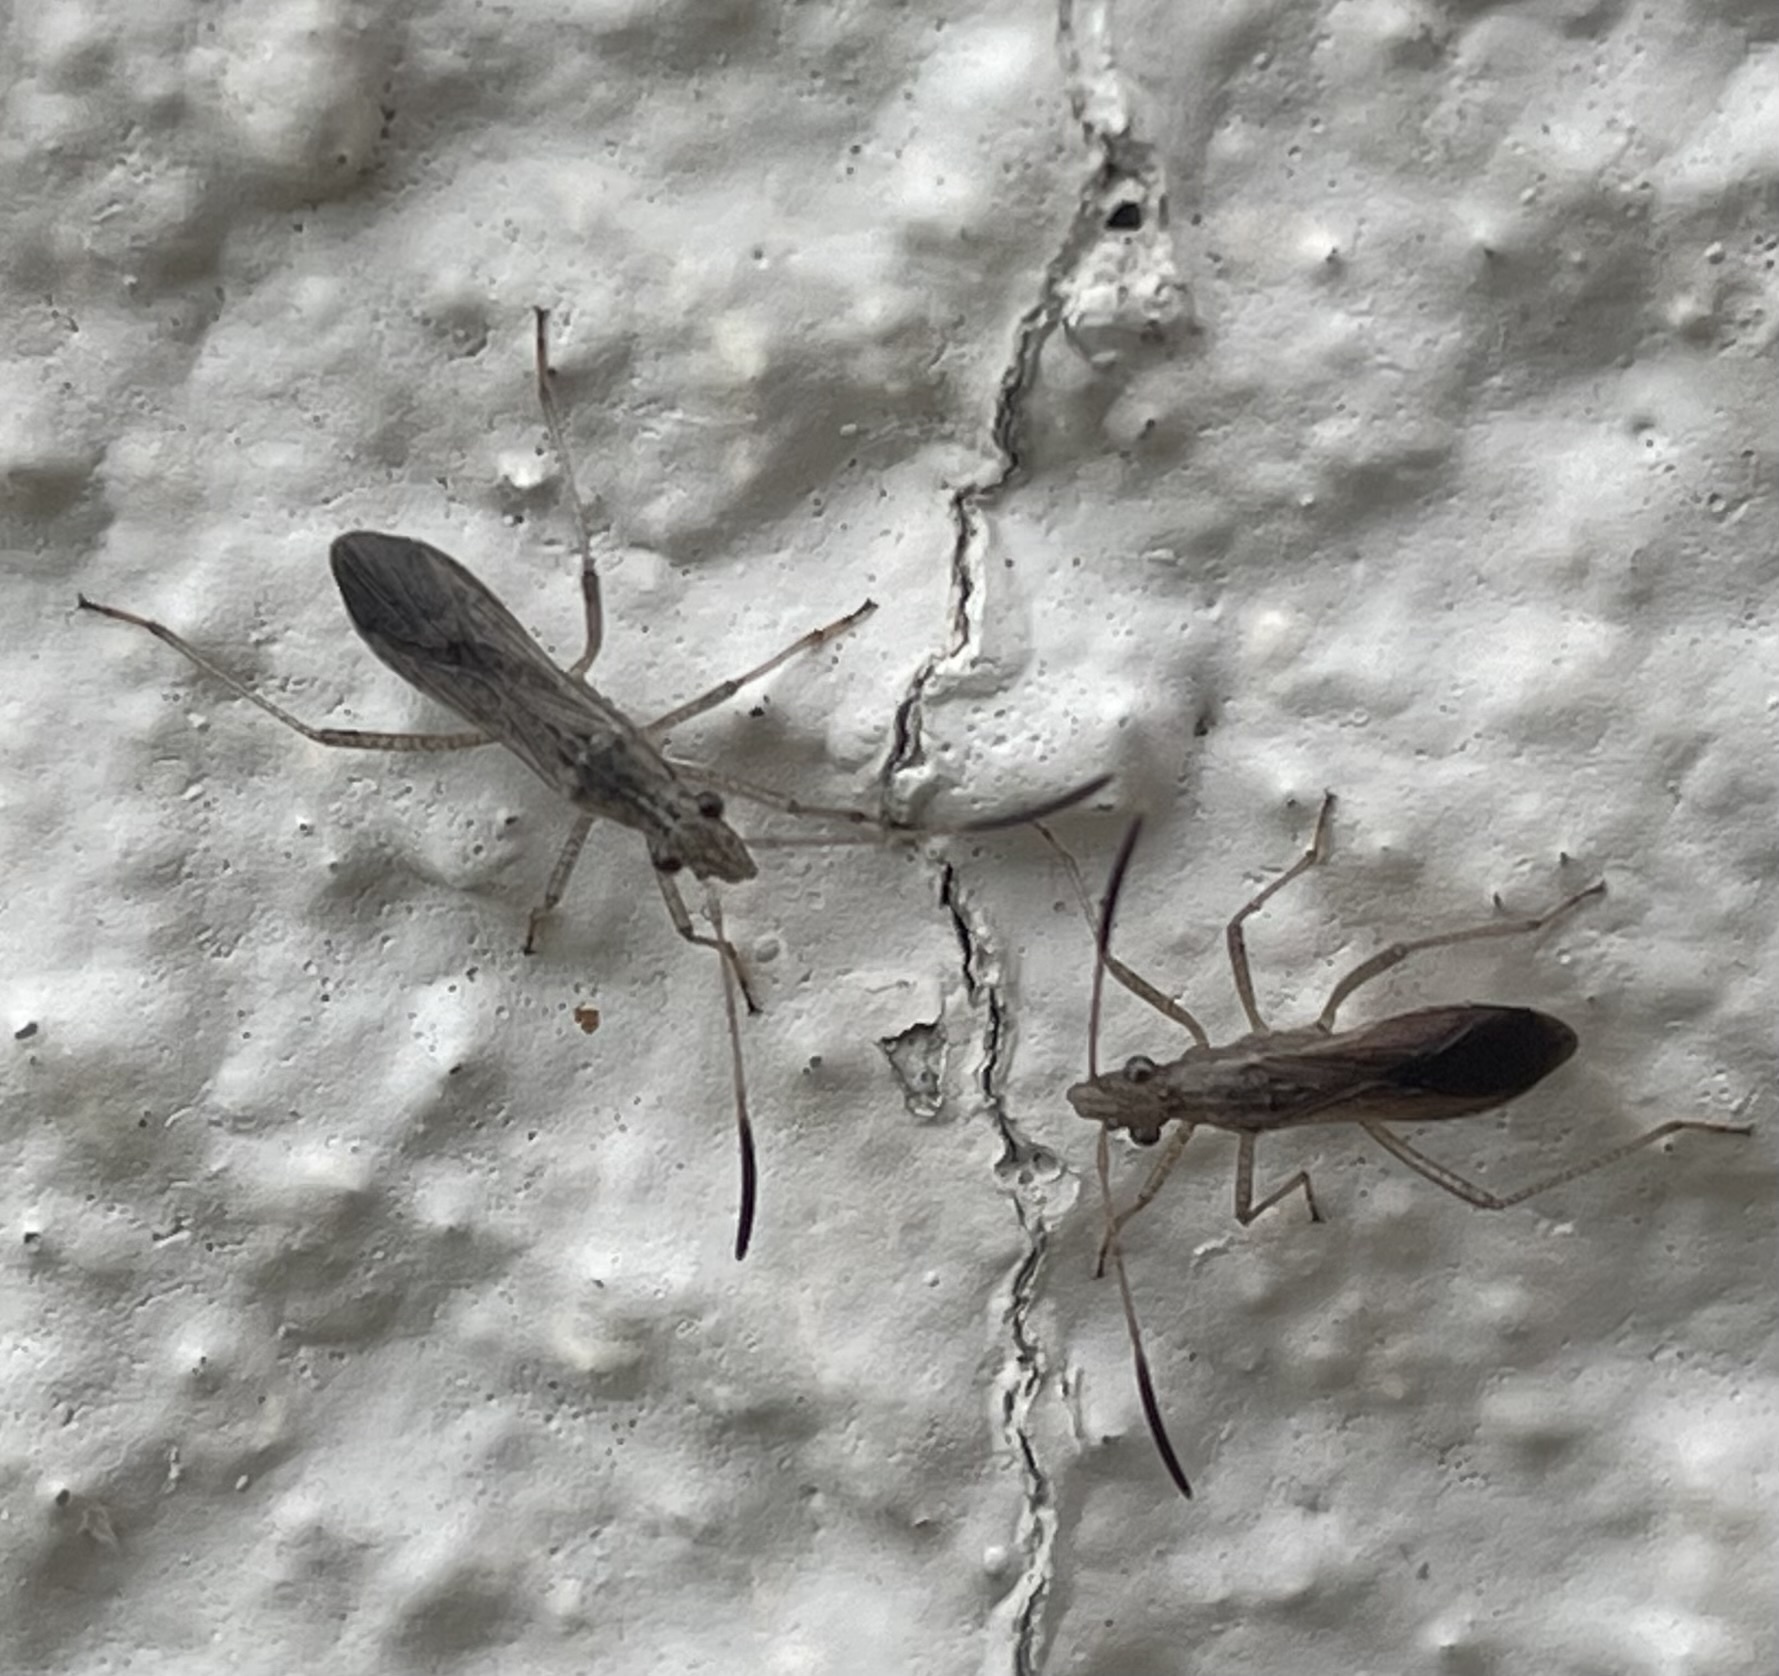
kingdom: Animalia
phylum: Arthropoda
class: Insecta
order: Hemiptera
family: Alydidae
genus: Esperanza
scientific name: Esperanza texana
